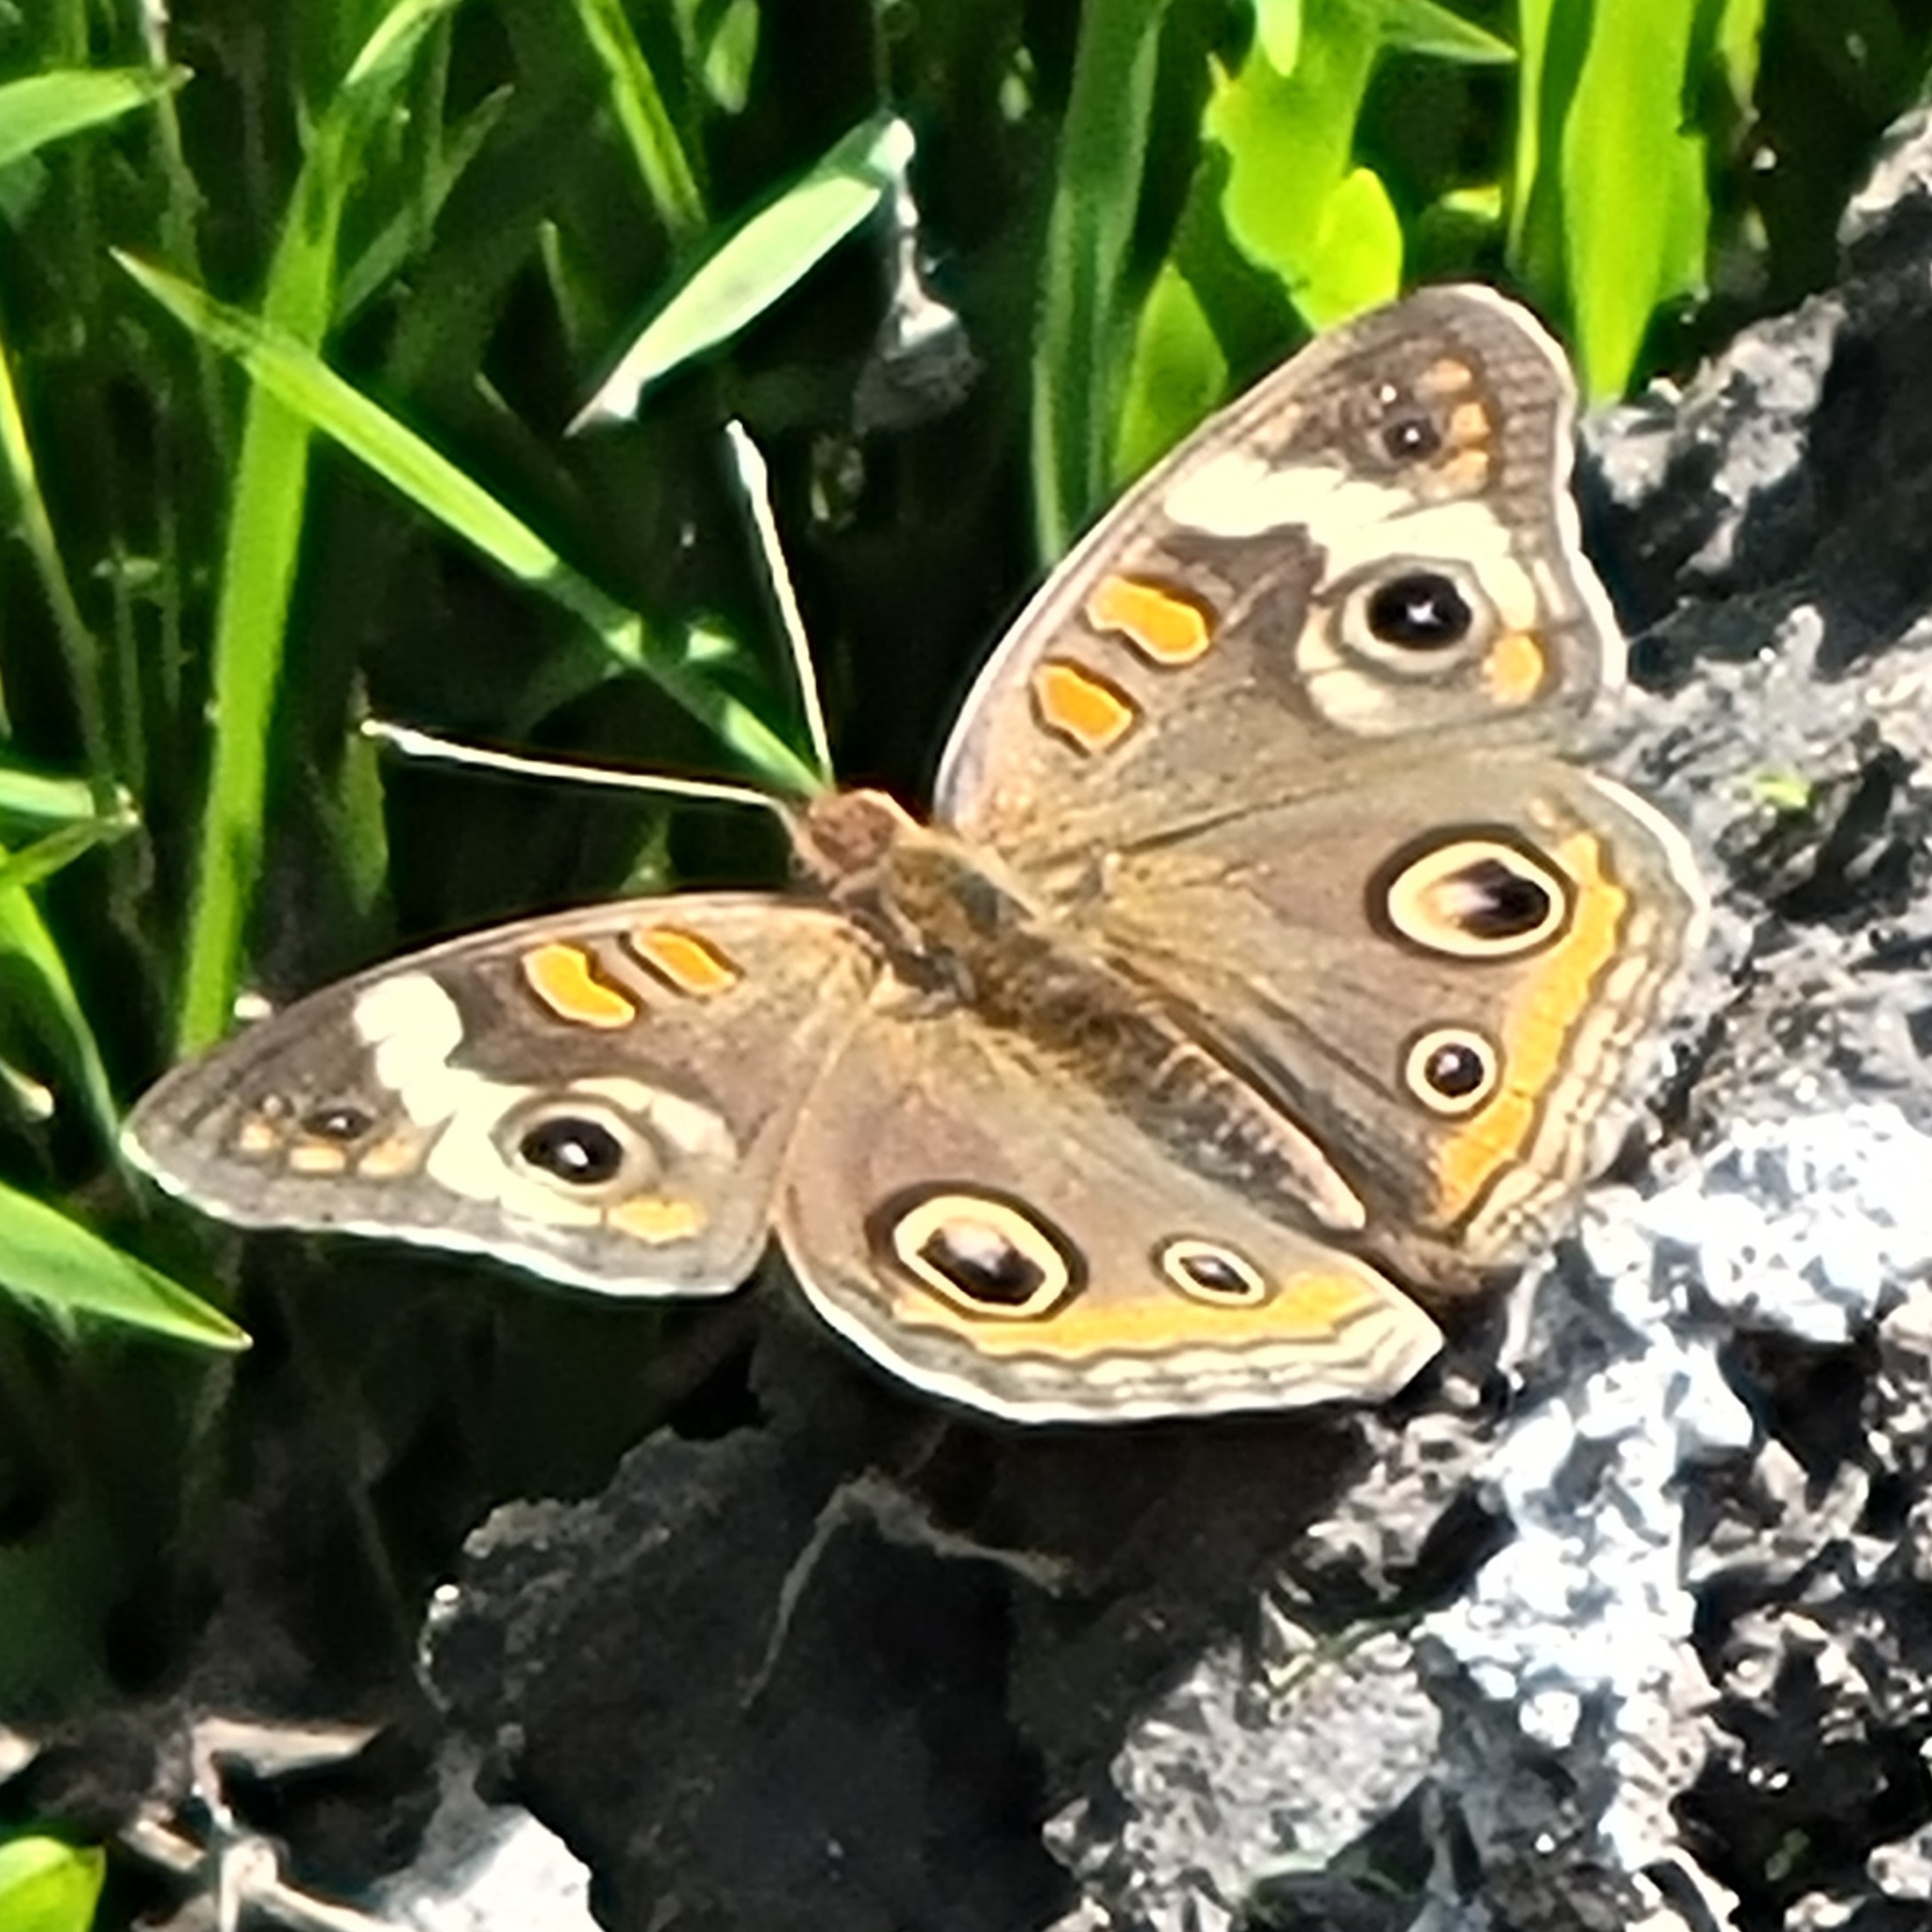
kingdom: Animalia
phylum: Arthropoda
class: Insecta
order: Lepidoptera
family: Nymphalidae
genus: Junonia
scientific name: Junonia coenia
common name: Common buckeye
